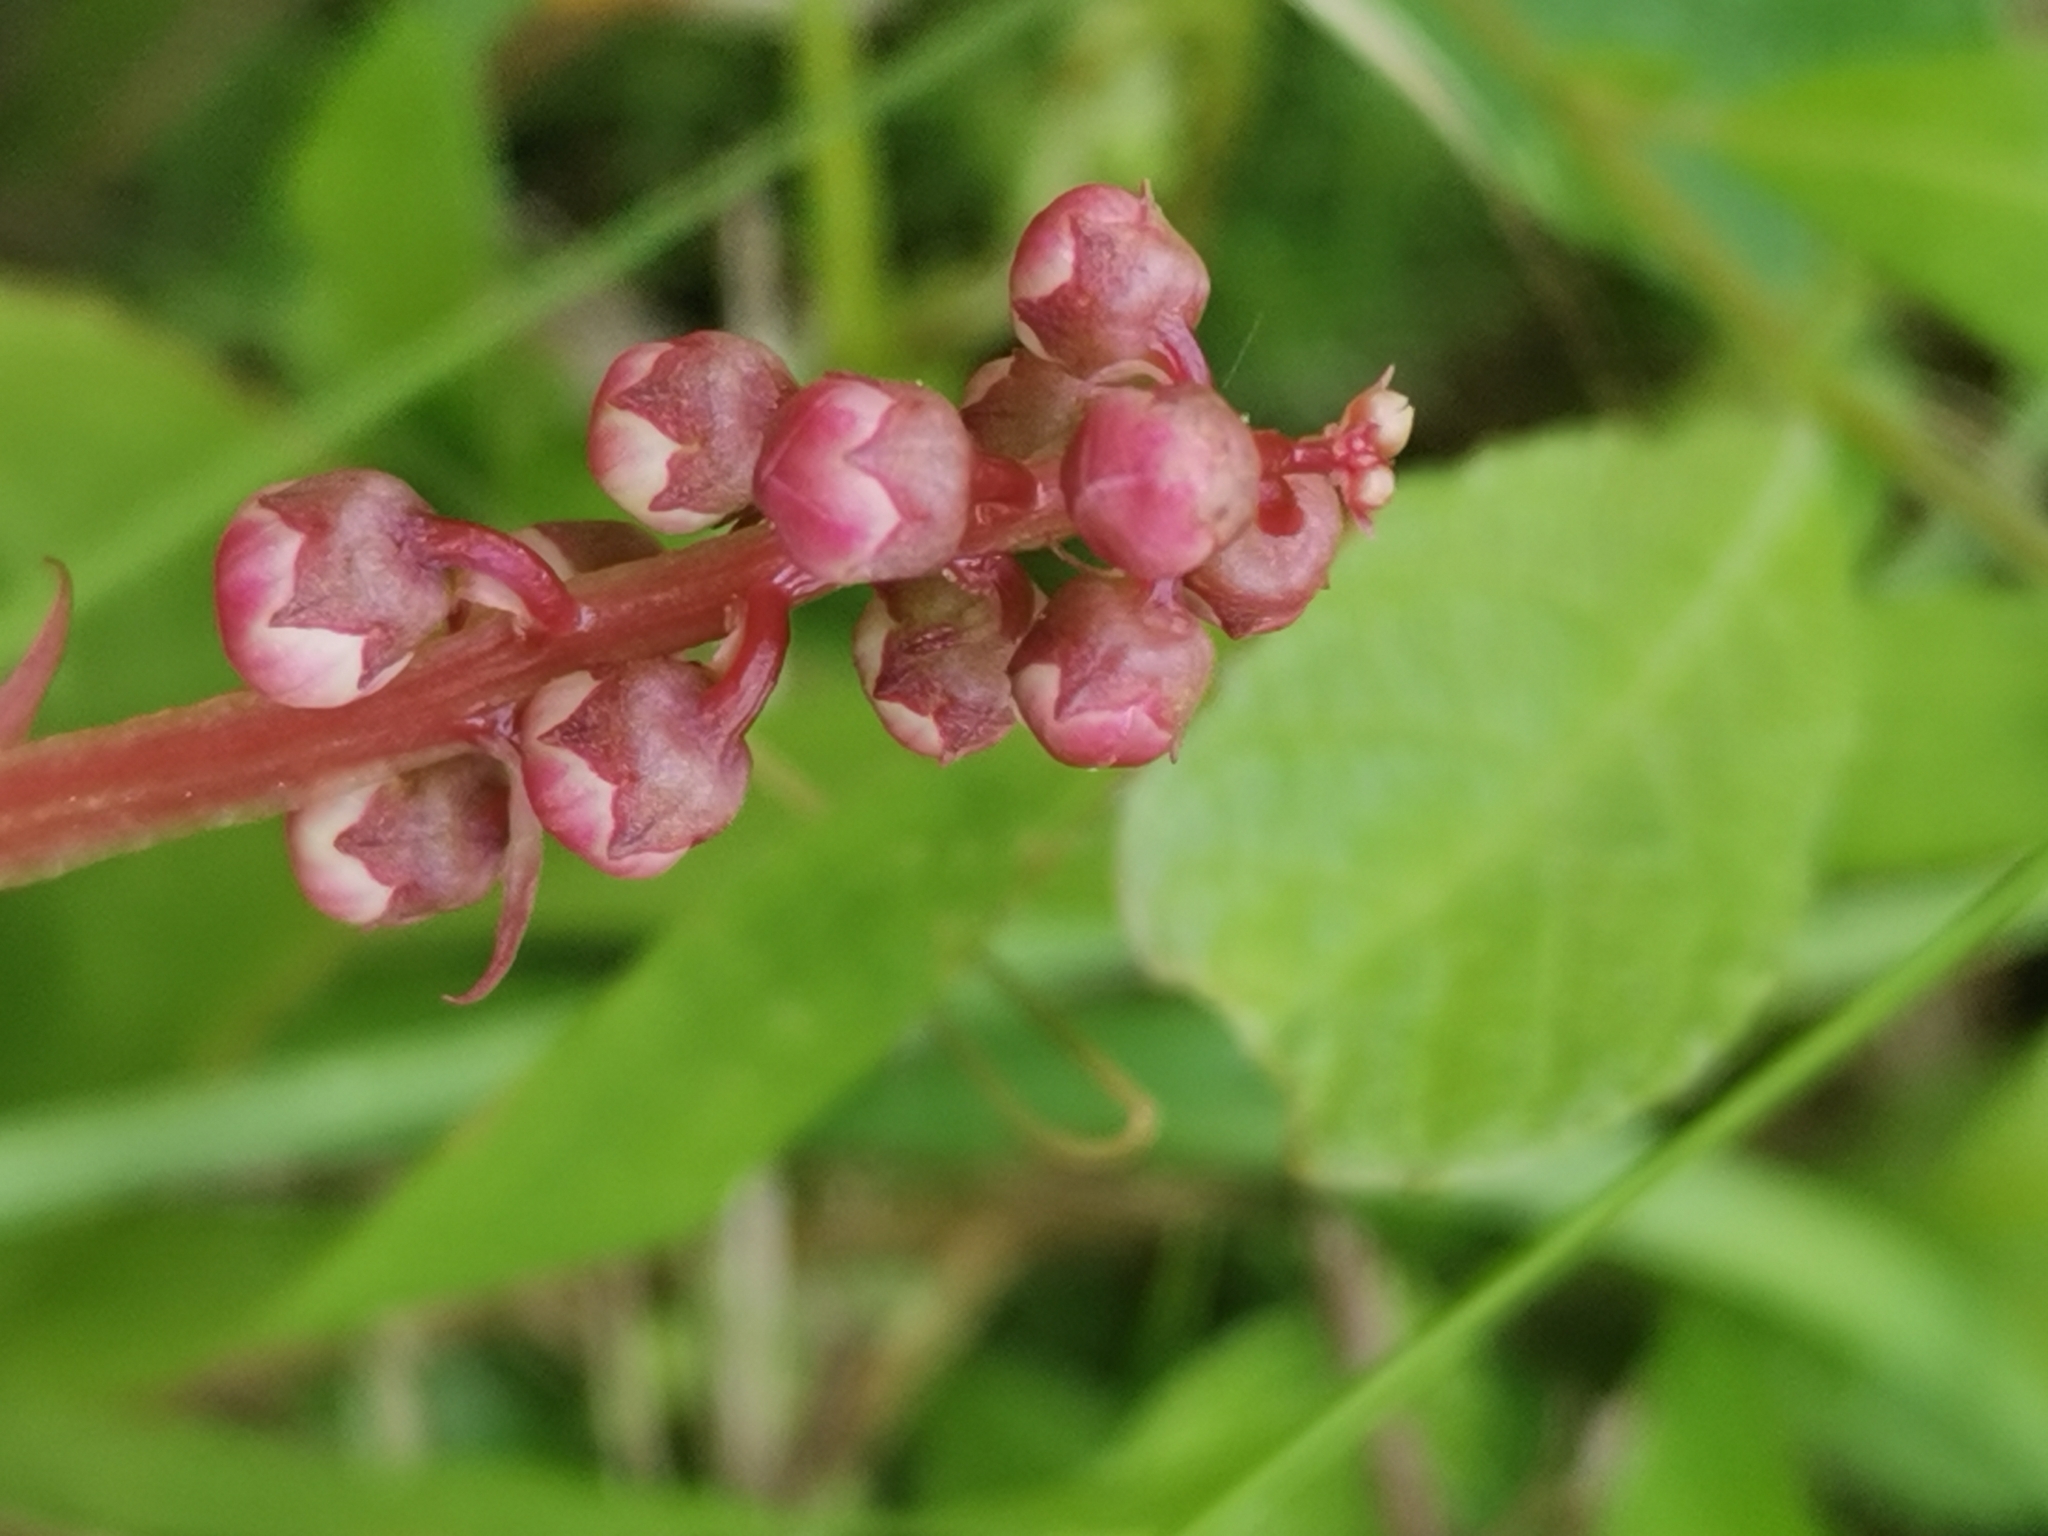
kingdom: Plantae
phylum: Tracheophyta
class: Magnoliopsida
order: Ericales
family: Ericaceae
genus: Pyrola
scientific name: Pyrola minor
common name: Common wintergreen
